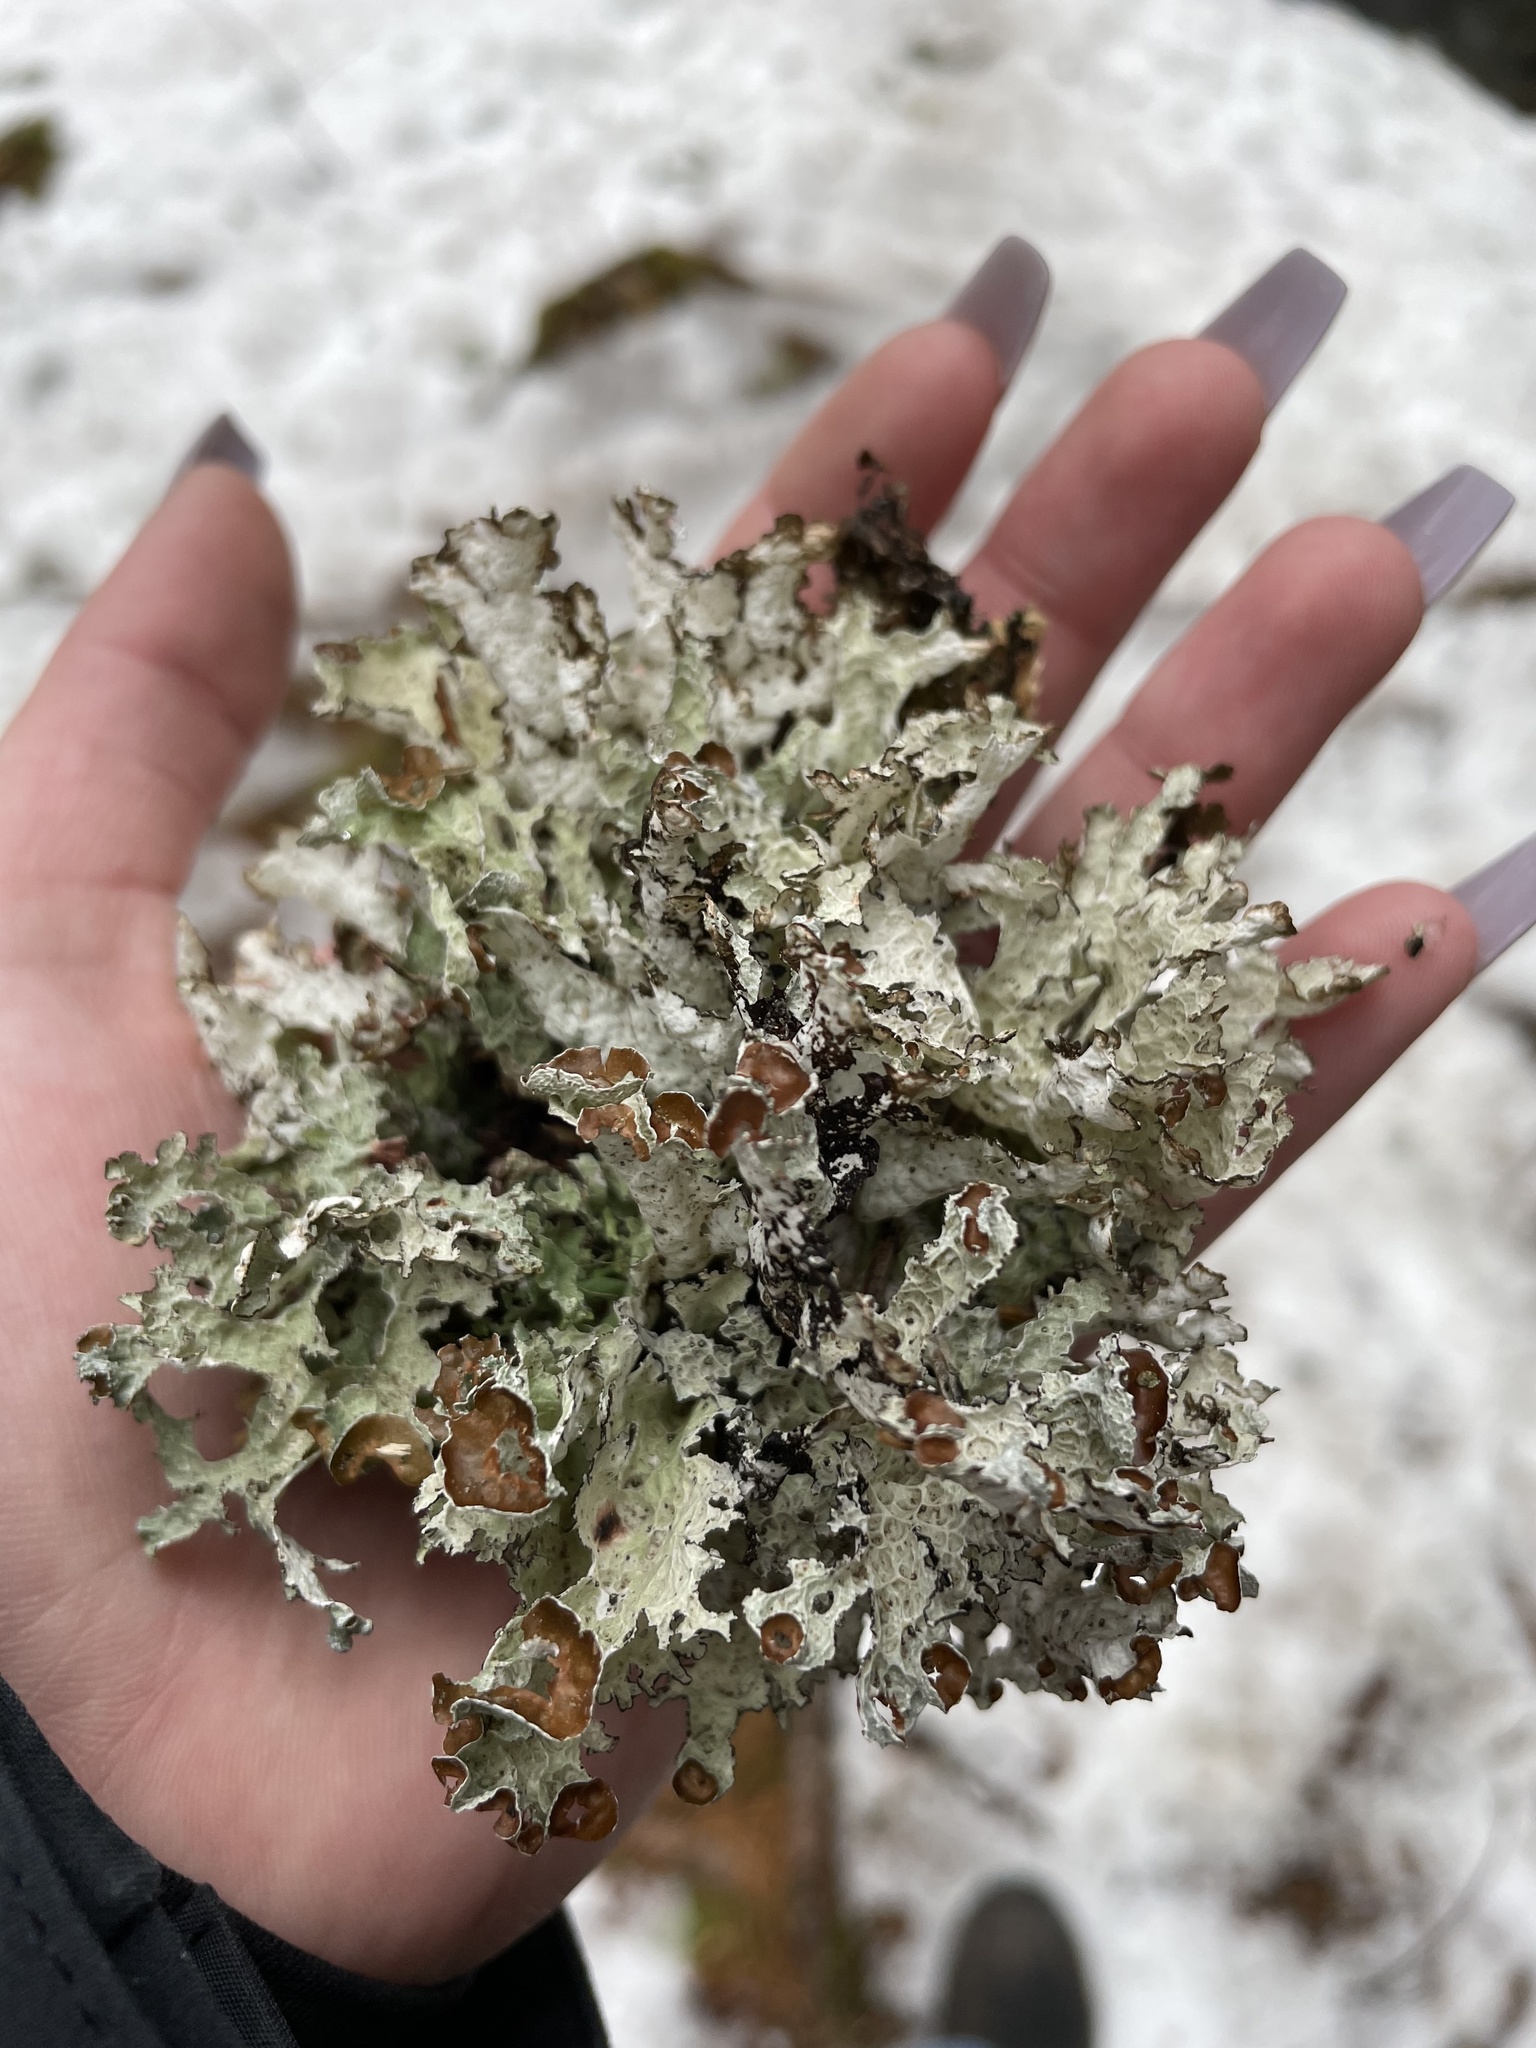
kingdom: Fungi
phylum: Ascomycota
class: Lecanoromycetes
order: Lecanorales
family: Parmeliaceae
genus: Platismatia
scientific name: Platismatia tuckermanii
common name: Crumpled rag lichen
